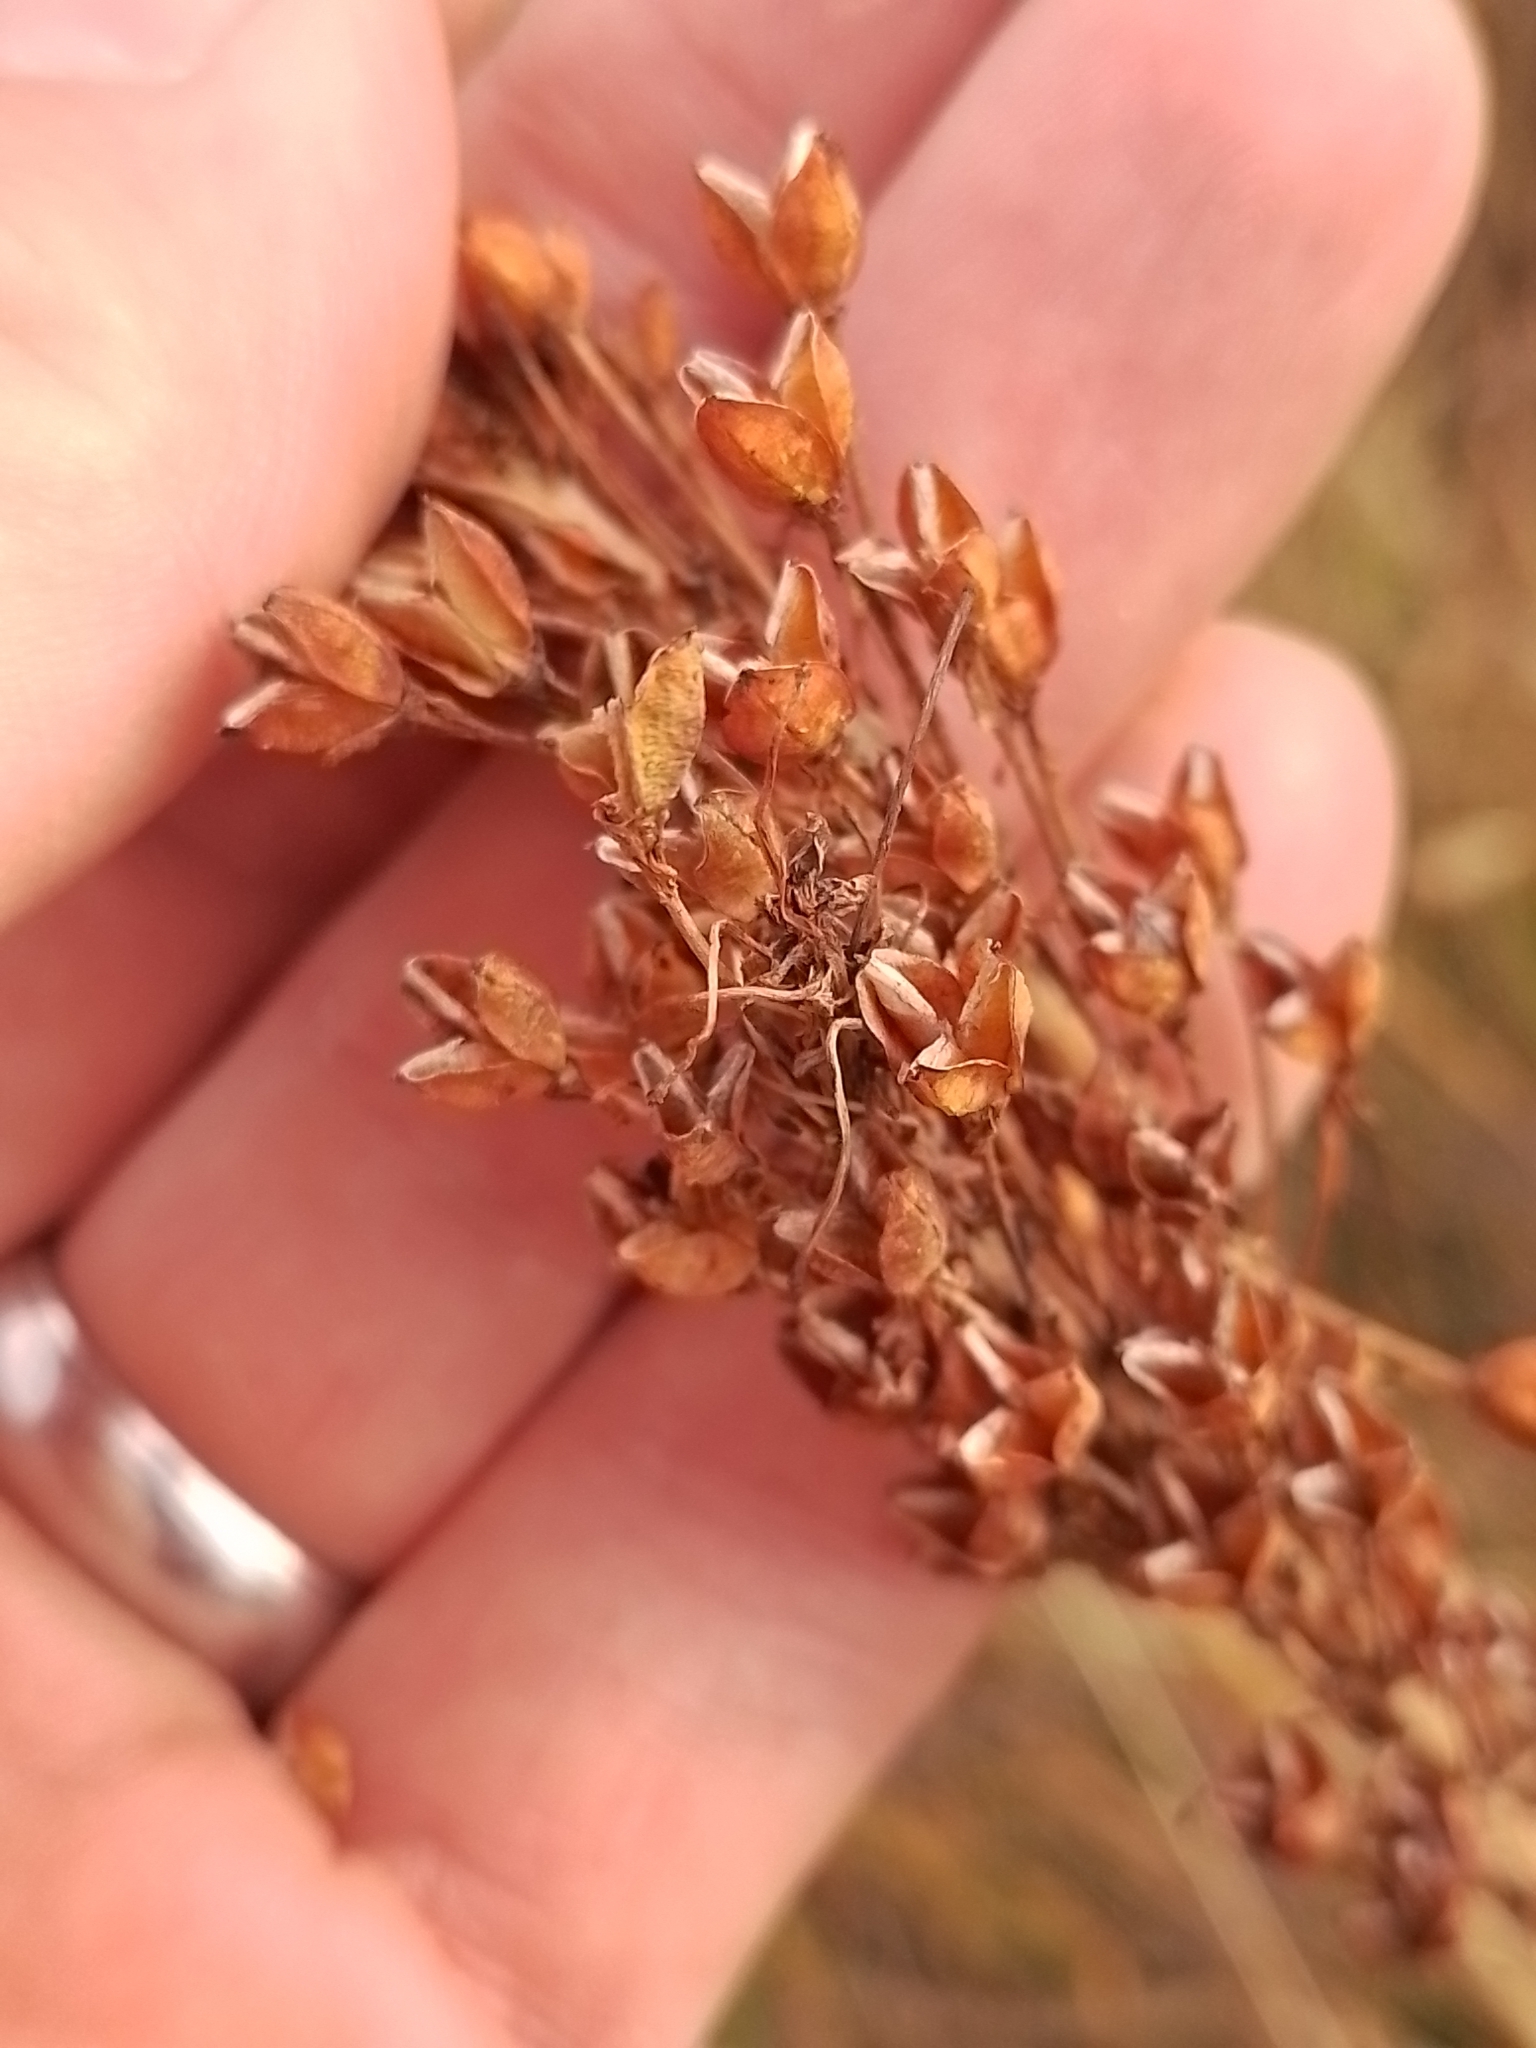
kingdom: Plantae
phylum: Tracheophyta
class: Liliopsida
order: Asparagales
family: Asphodelaceae
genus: Bulbinella
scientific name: Bulbinella angustifolia
